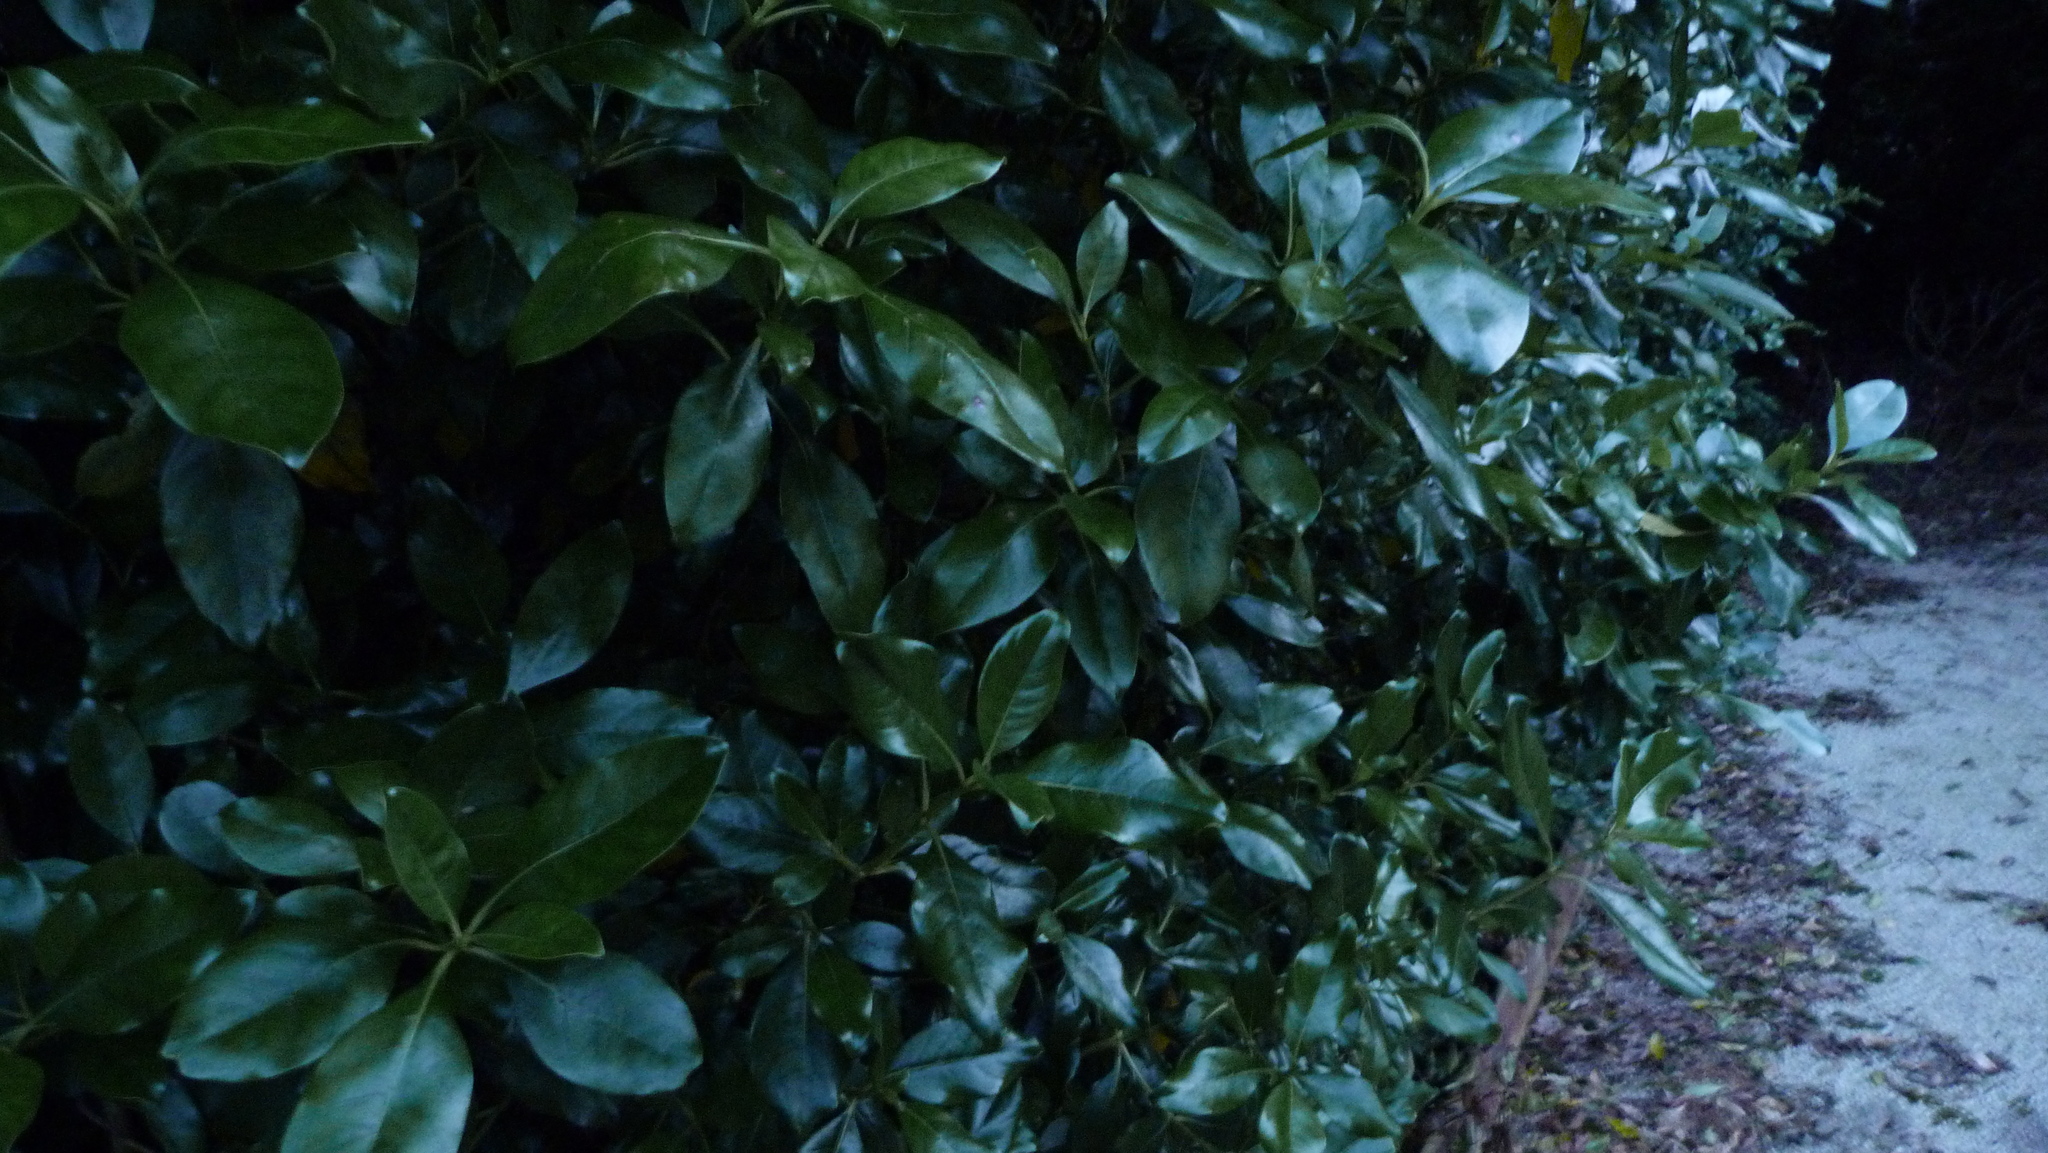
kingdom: Plantae
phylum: Tracheophyta
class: Magnoliopsida
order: Gentianales
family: Rubiaceae
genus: Coprosma
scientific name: Coprosma robusta
